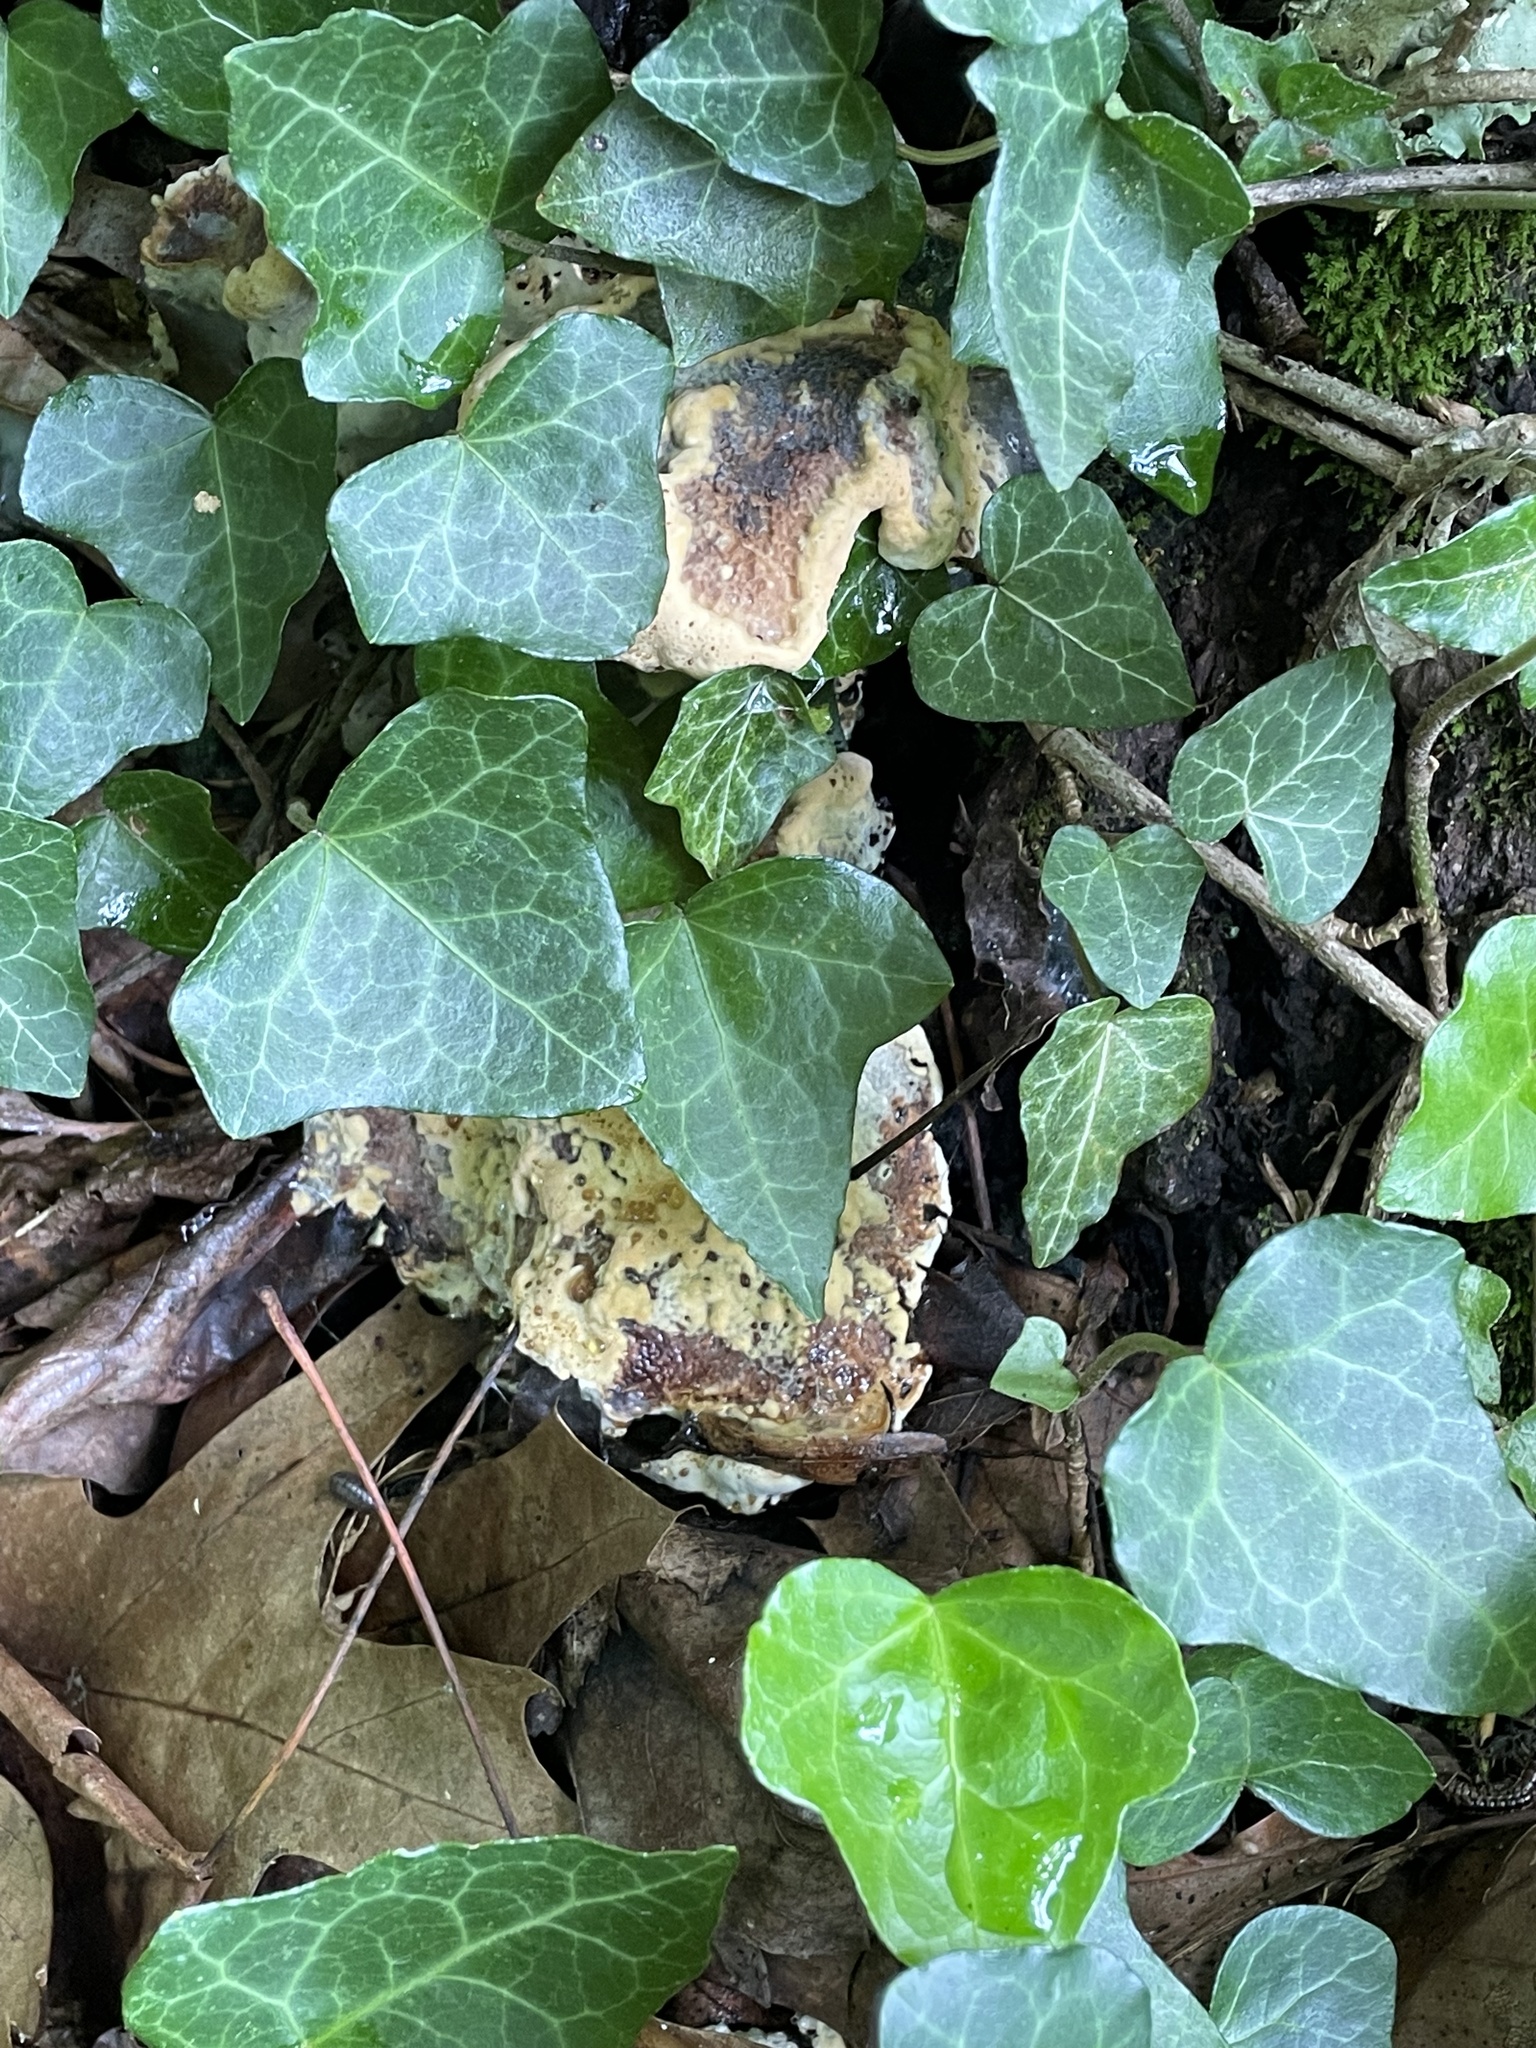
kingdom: Fungi
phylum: Basidiomycota
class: Agaricomycetes
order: Hymenochaetales
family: Hymenochaetaceae
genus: Pseudoinonotus
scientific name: Pseudoinonotus dryadeus
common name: Oak bracket
